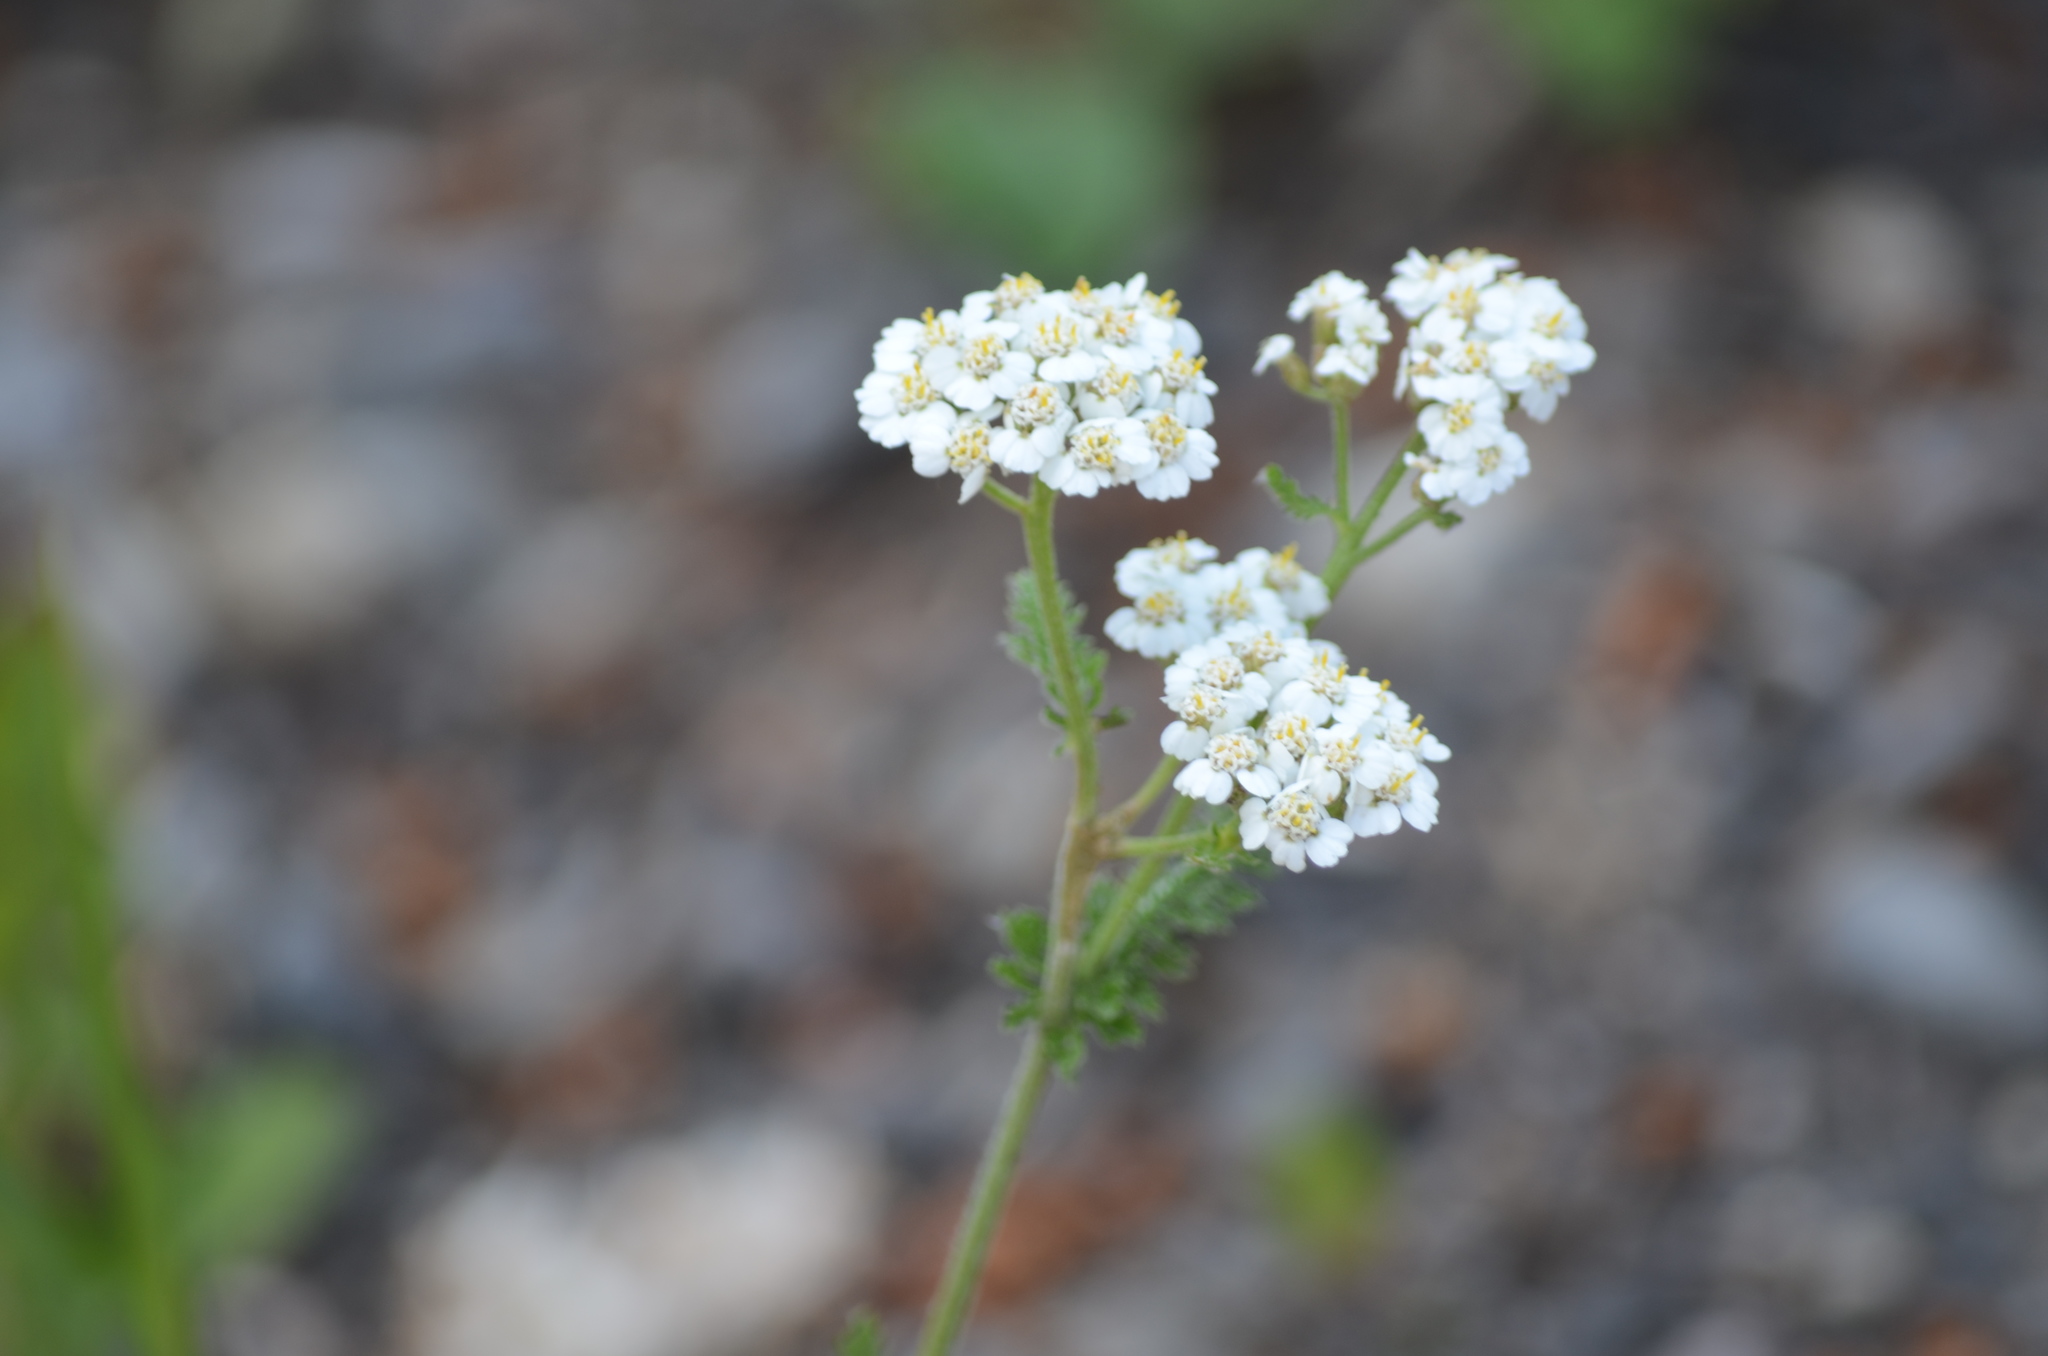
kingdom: Plantae
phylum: Tracheophyta
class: Magnoliopsida
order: Asterales
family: Asteraceae
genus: Achillea
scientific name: Achillea millefolium
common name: Yarrow
